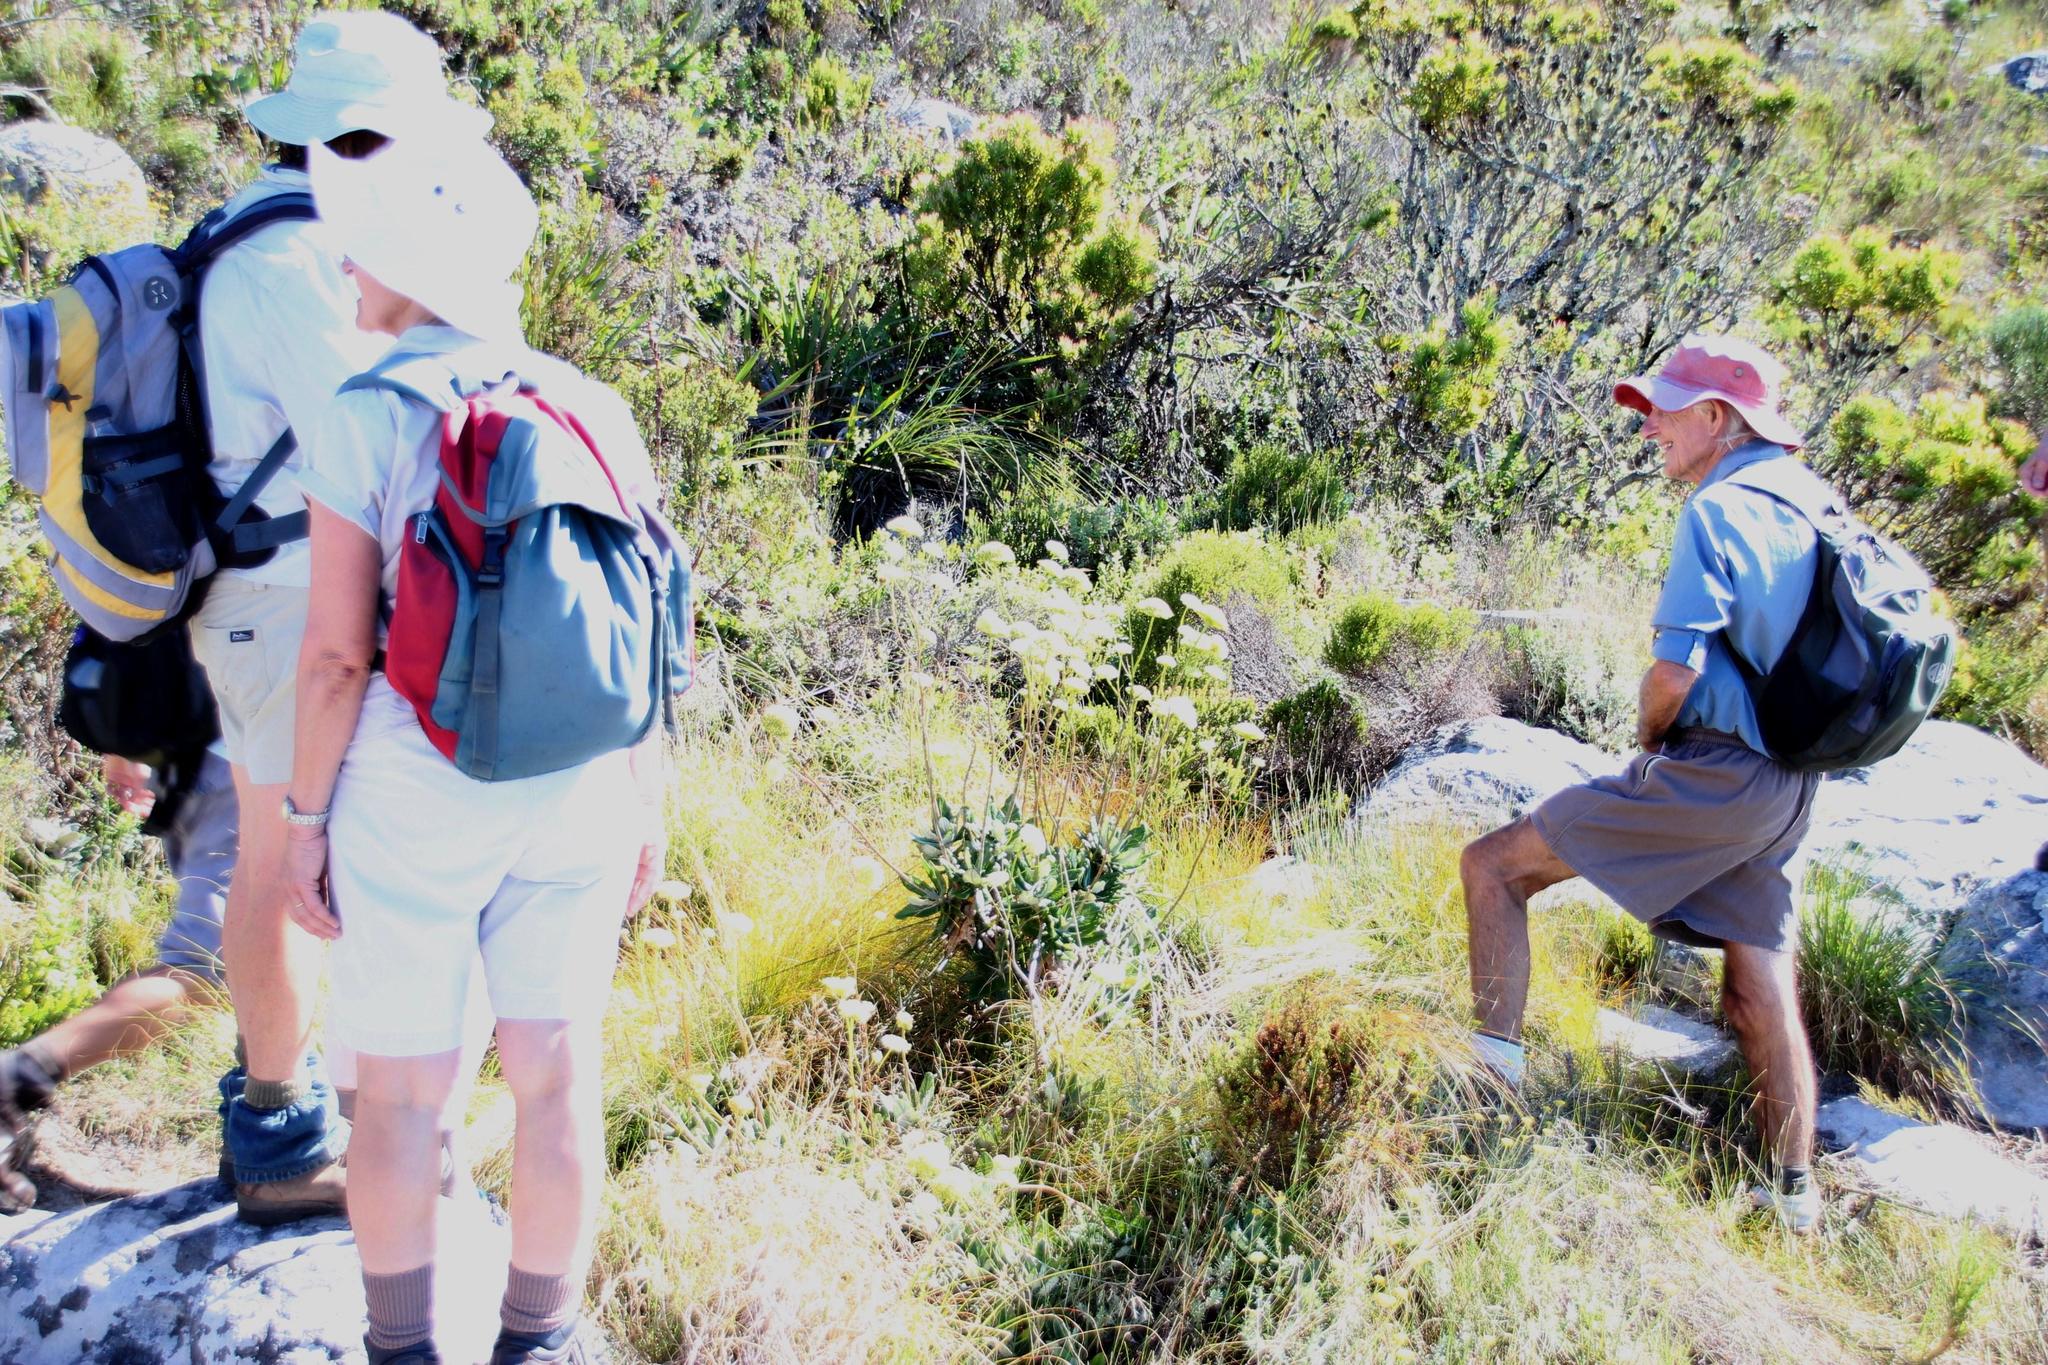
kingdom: Plantae
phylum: Tracheophyta
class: Magnoliopsida
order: Apiales
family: Apiaceae
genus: Hermas
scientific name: Hermas villosa
